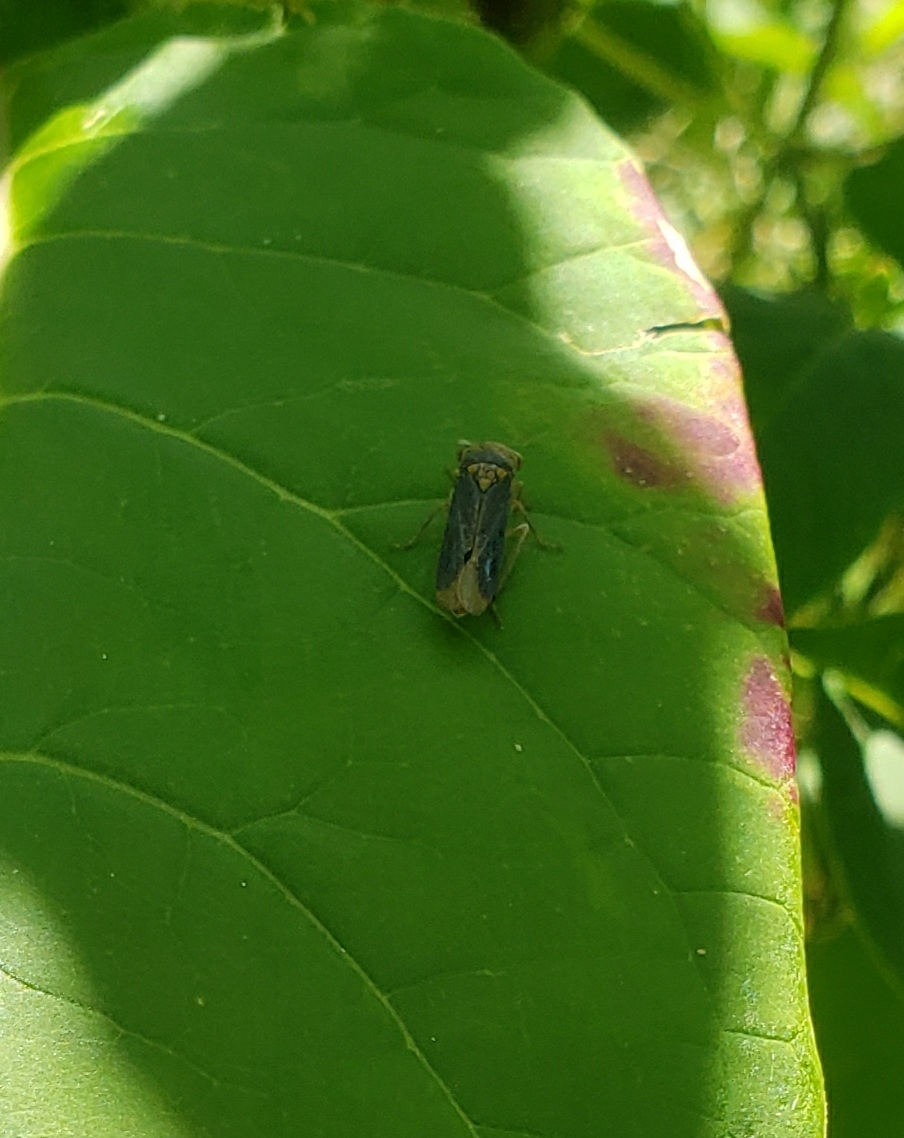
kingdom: Animalia
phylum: Arthropoda
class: Insecta
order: Hemiptera
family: Cicadellidae
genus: Oncometopia
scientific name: Oncometopia orbona
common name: Broad-headed sharpshooter
